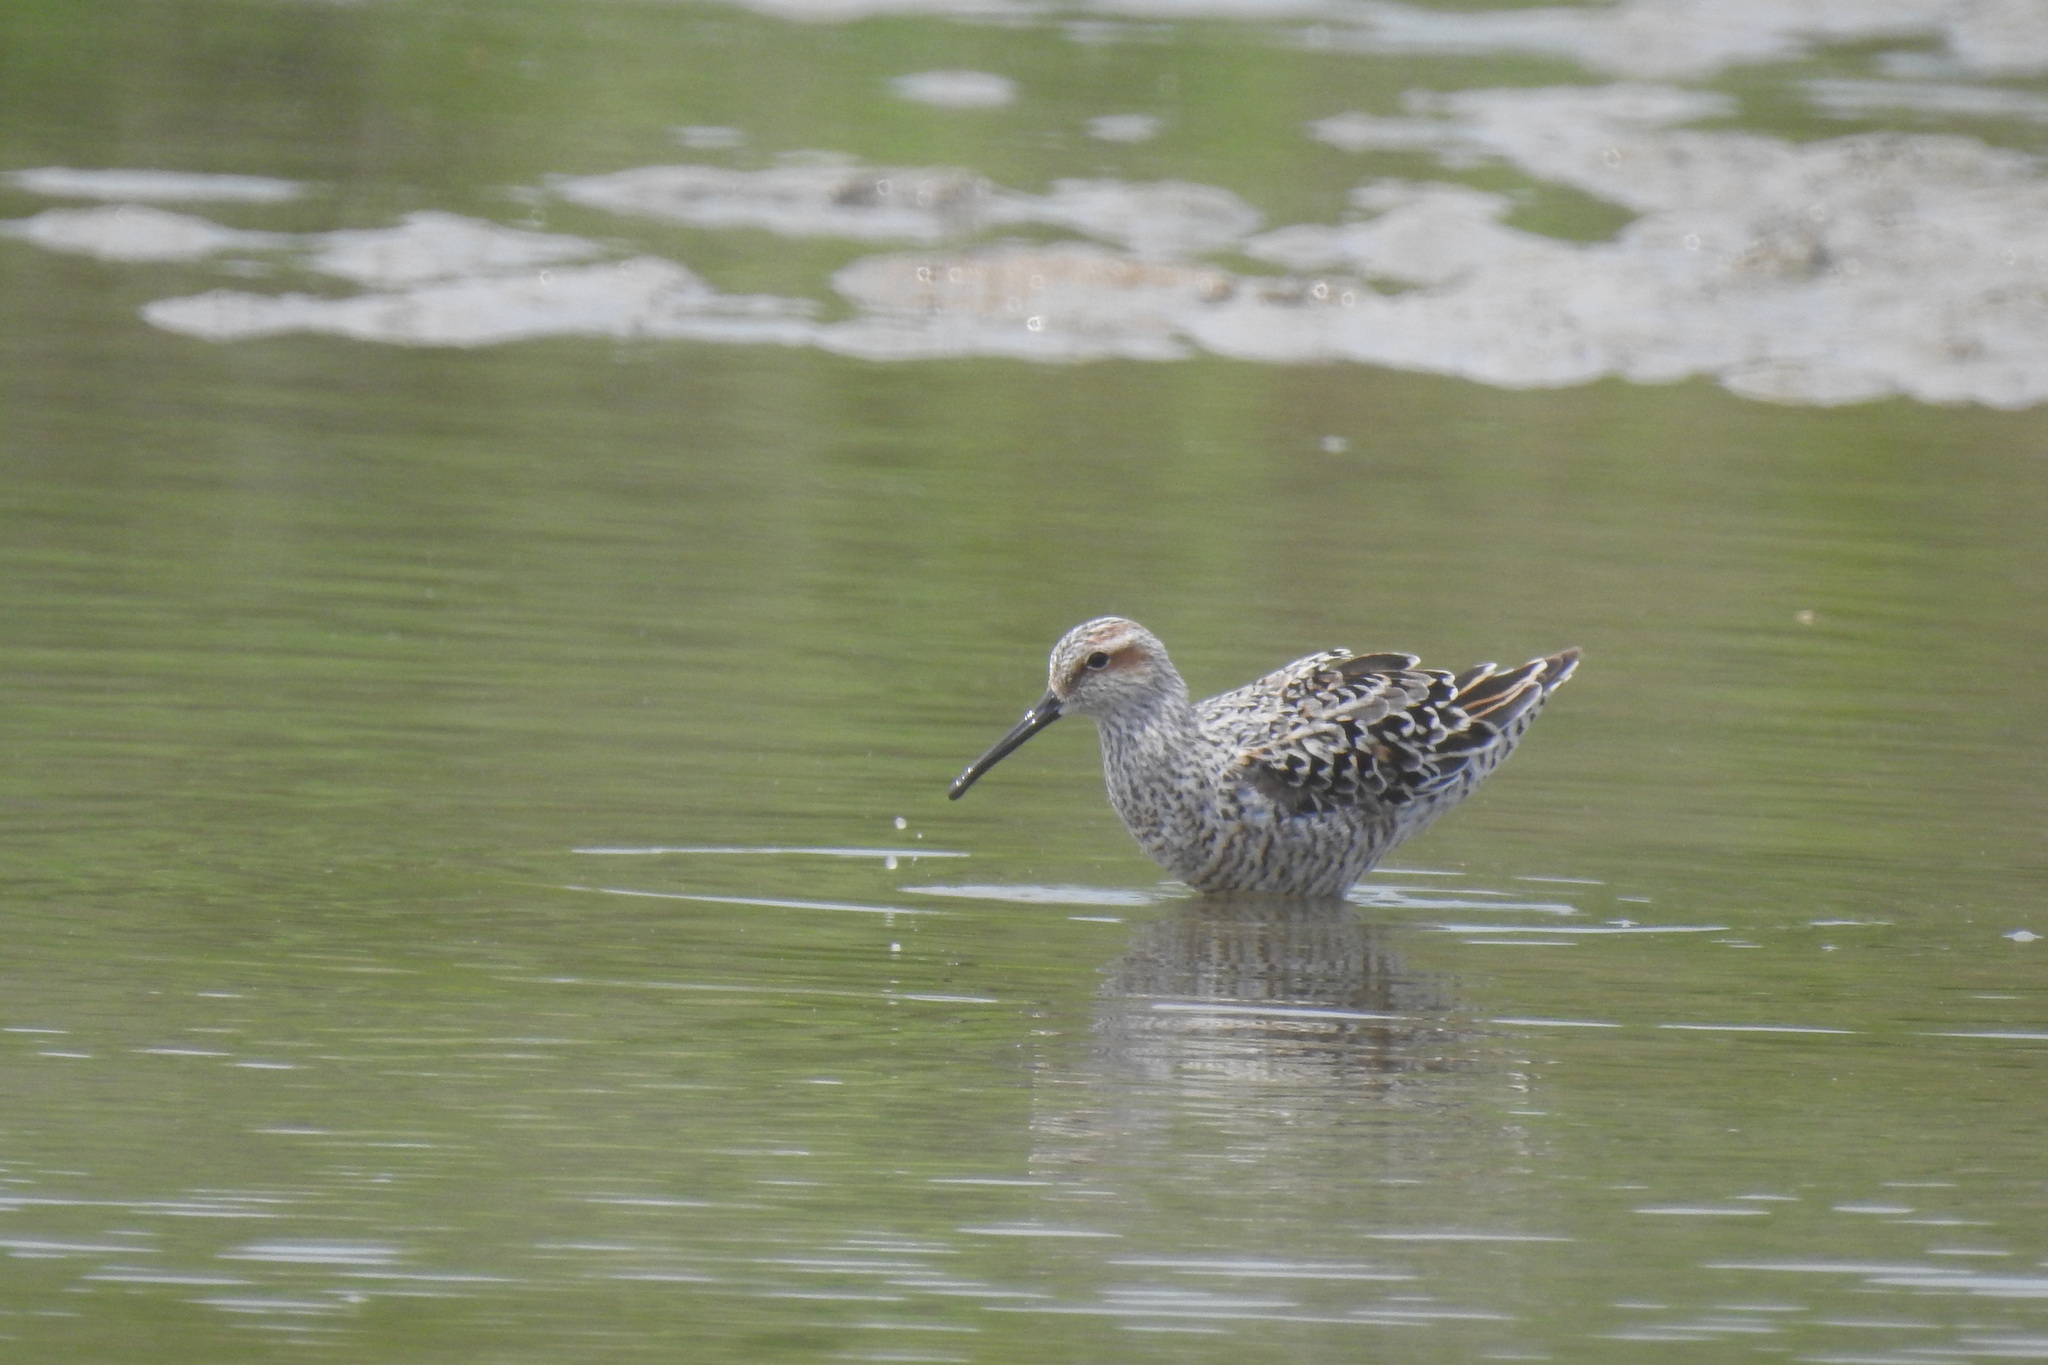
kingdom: Animalia
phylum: Chordata
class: Aves
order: Charadriiformes
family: Scolopacidae
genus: Calidris
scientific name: Calidris himantopus
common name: Stilt sandpiper
